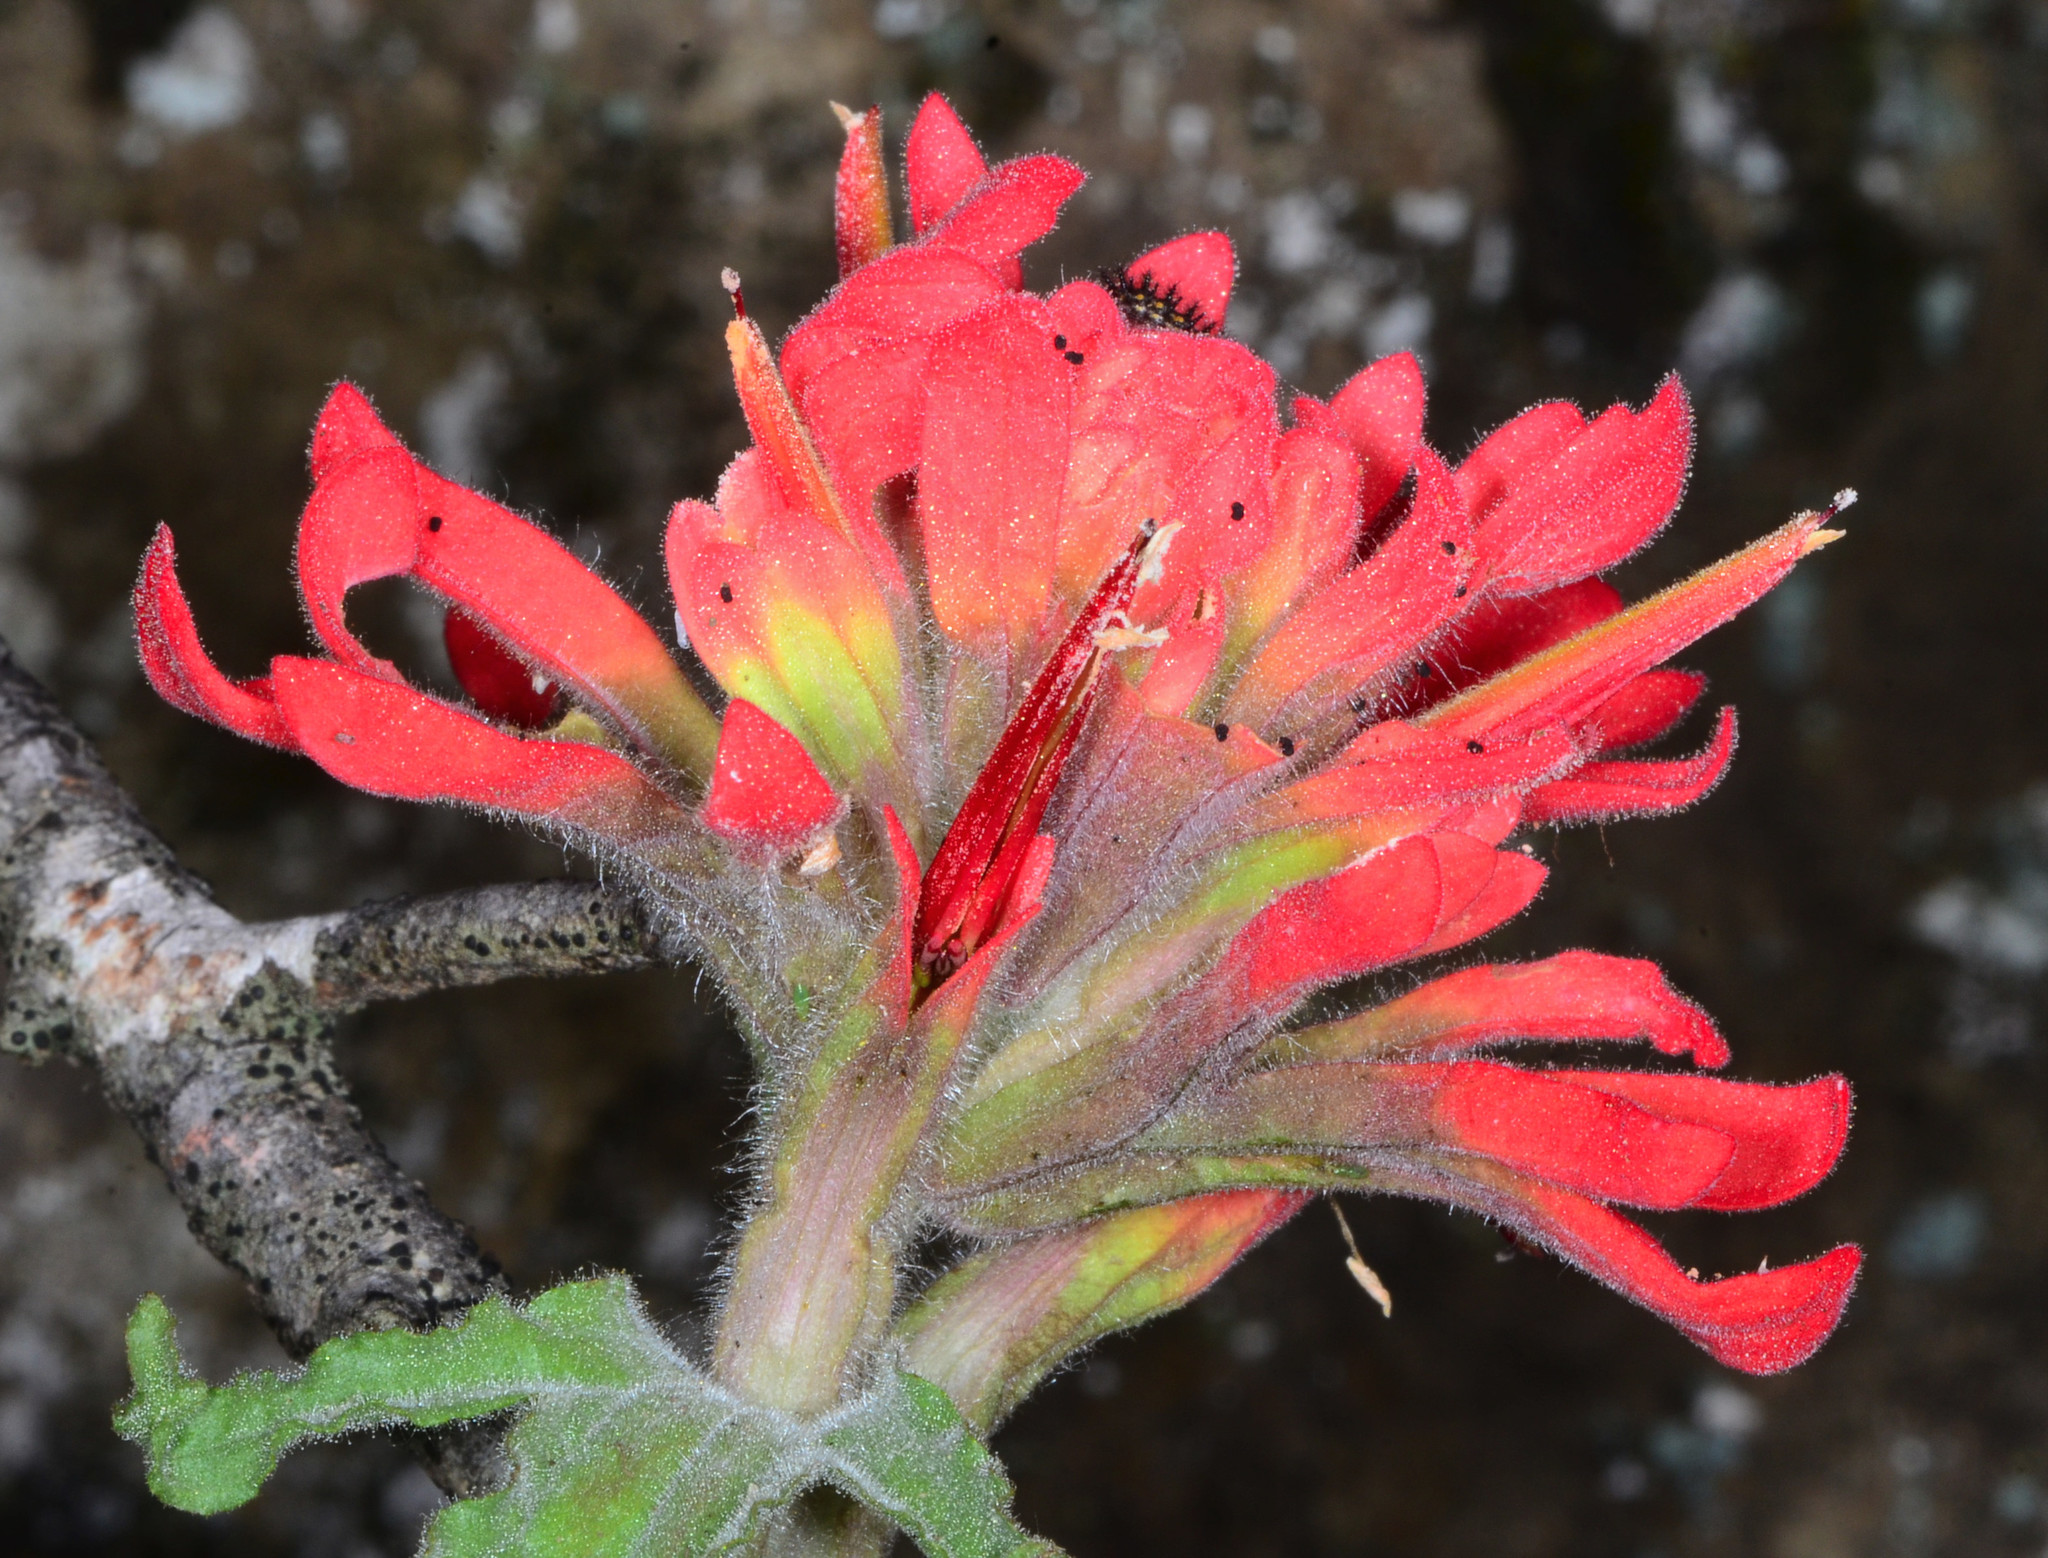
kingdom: Plantae
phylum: Tracheophyta
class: Magnoliopsida
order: Lamiales
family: Orobanchaceae
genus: Castilleja
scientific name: Castilleja martini
